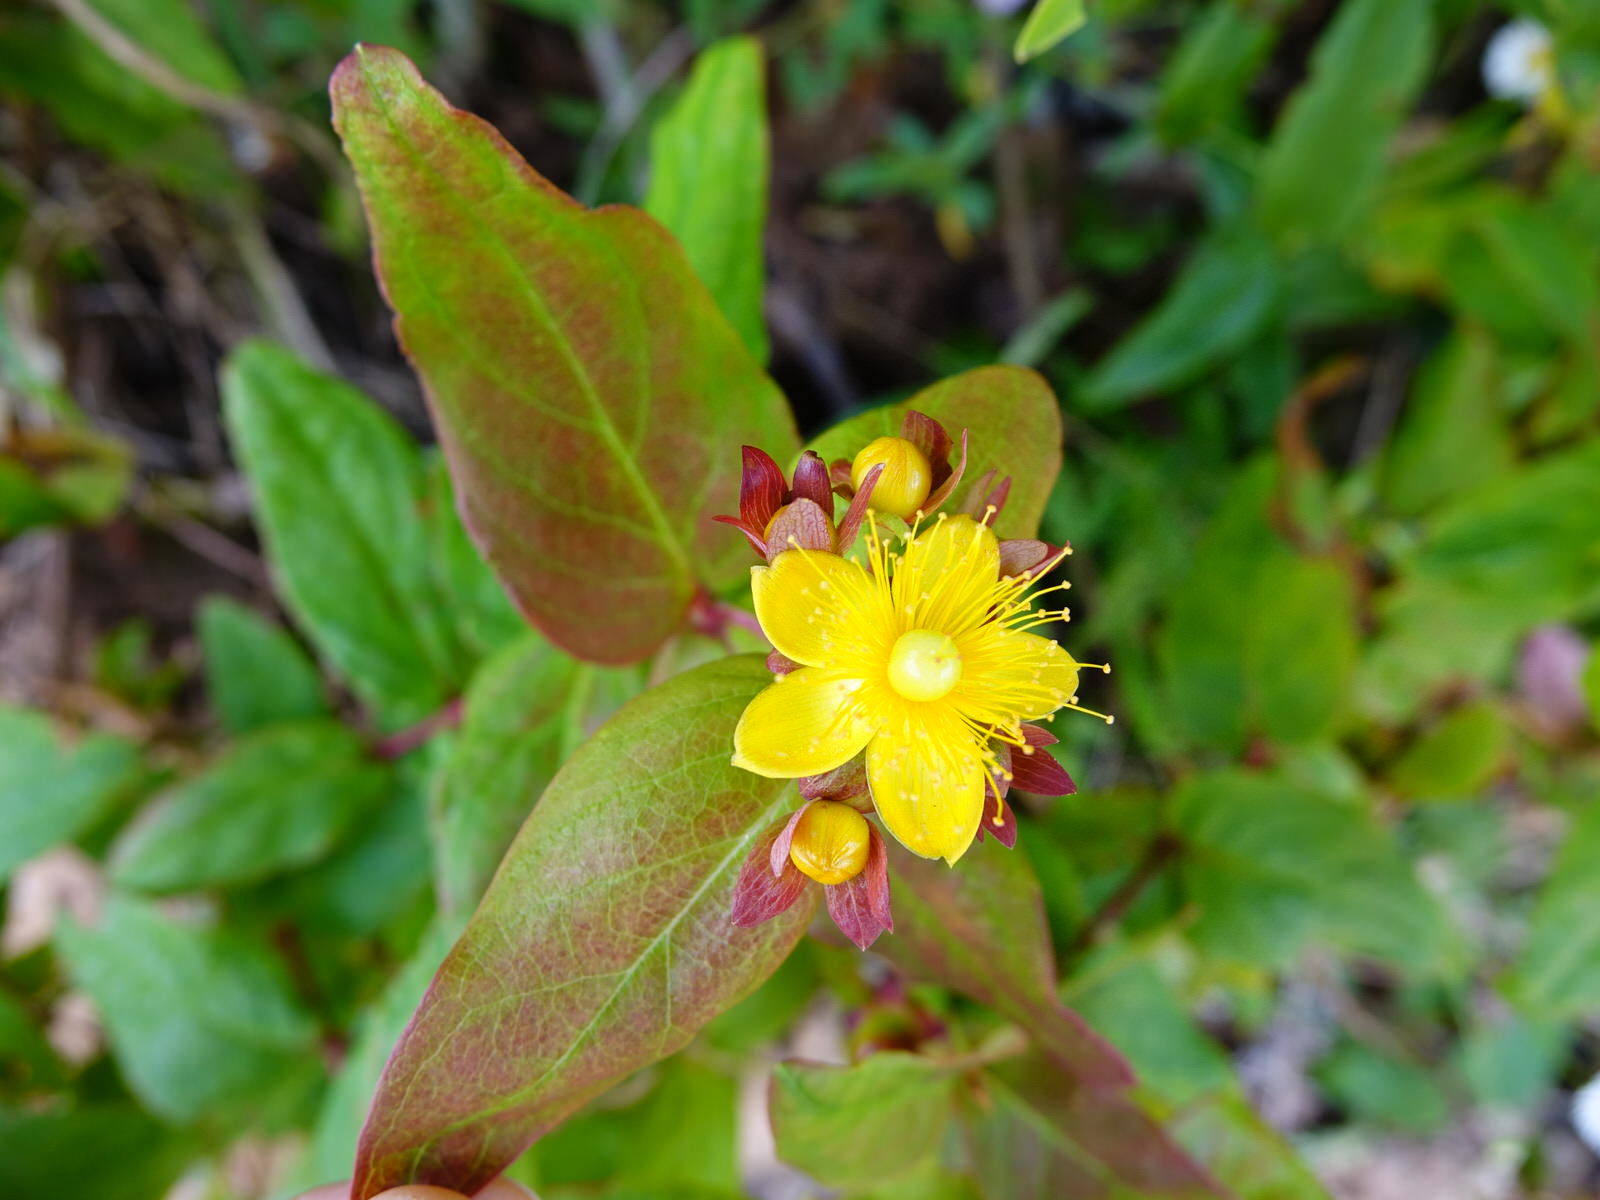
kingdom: Plantae
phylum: Tracheophyta
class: Magnoliopsida
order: Malpighiales
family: Hypericaceae
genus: Hypericum
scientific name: Hypericum androsaemum
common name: Sweet-amber
